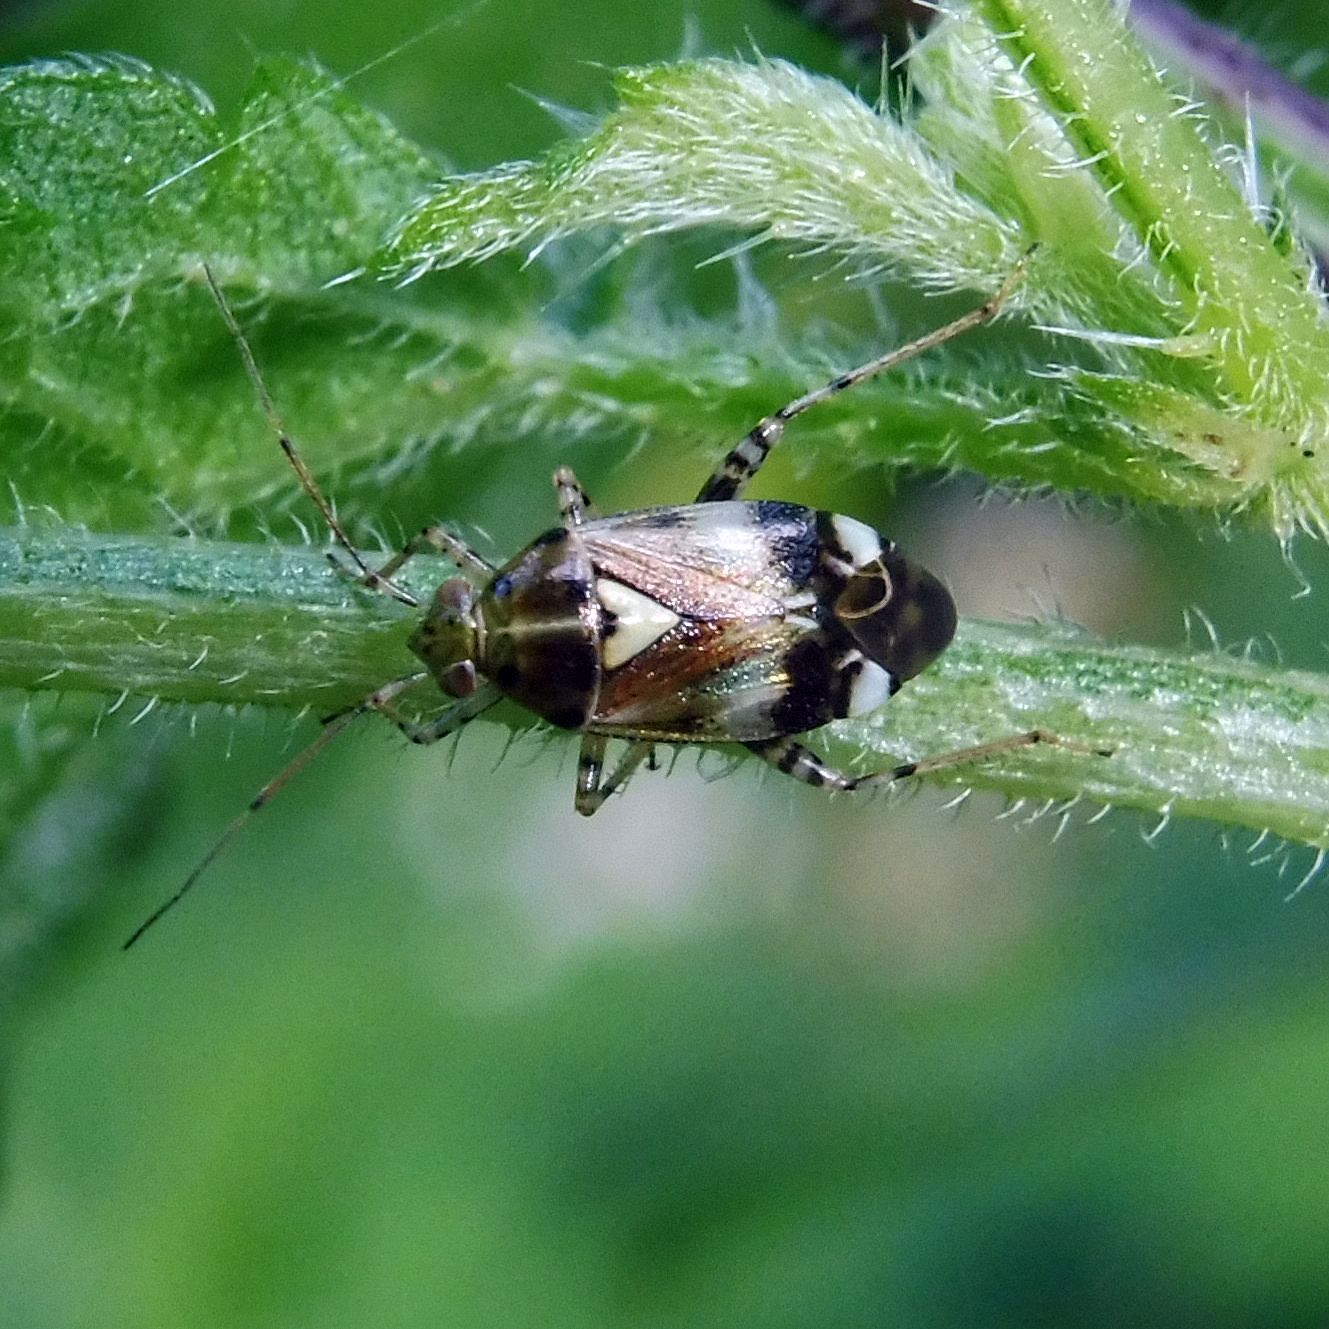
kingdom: Animalia
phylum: Arthropoda
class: Insecta
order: Hemiptera
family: Miridae
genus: Liocoris
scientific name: Liocoris tripustulatus
